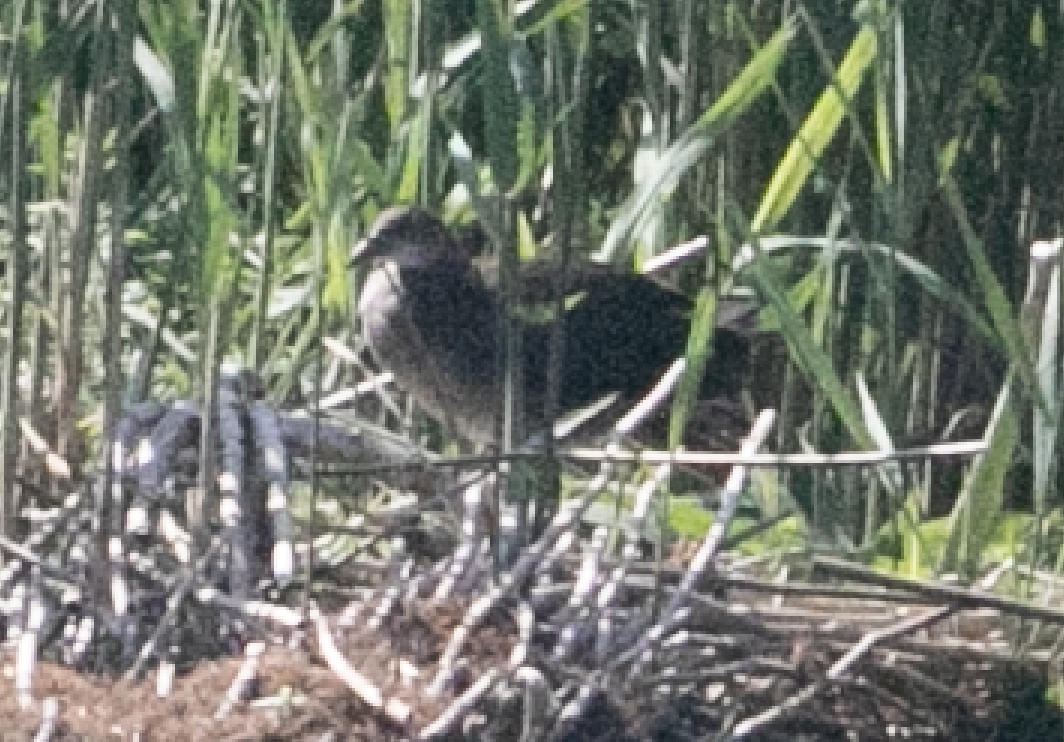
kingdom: Animalia
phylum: Chordata
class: Aves
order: Gruiformes
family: Rallidae
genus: Gallinula
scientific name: Gallinula chloropus
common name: Common moorhen
